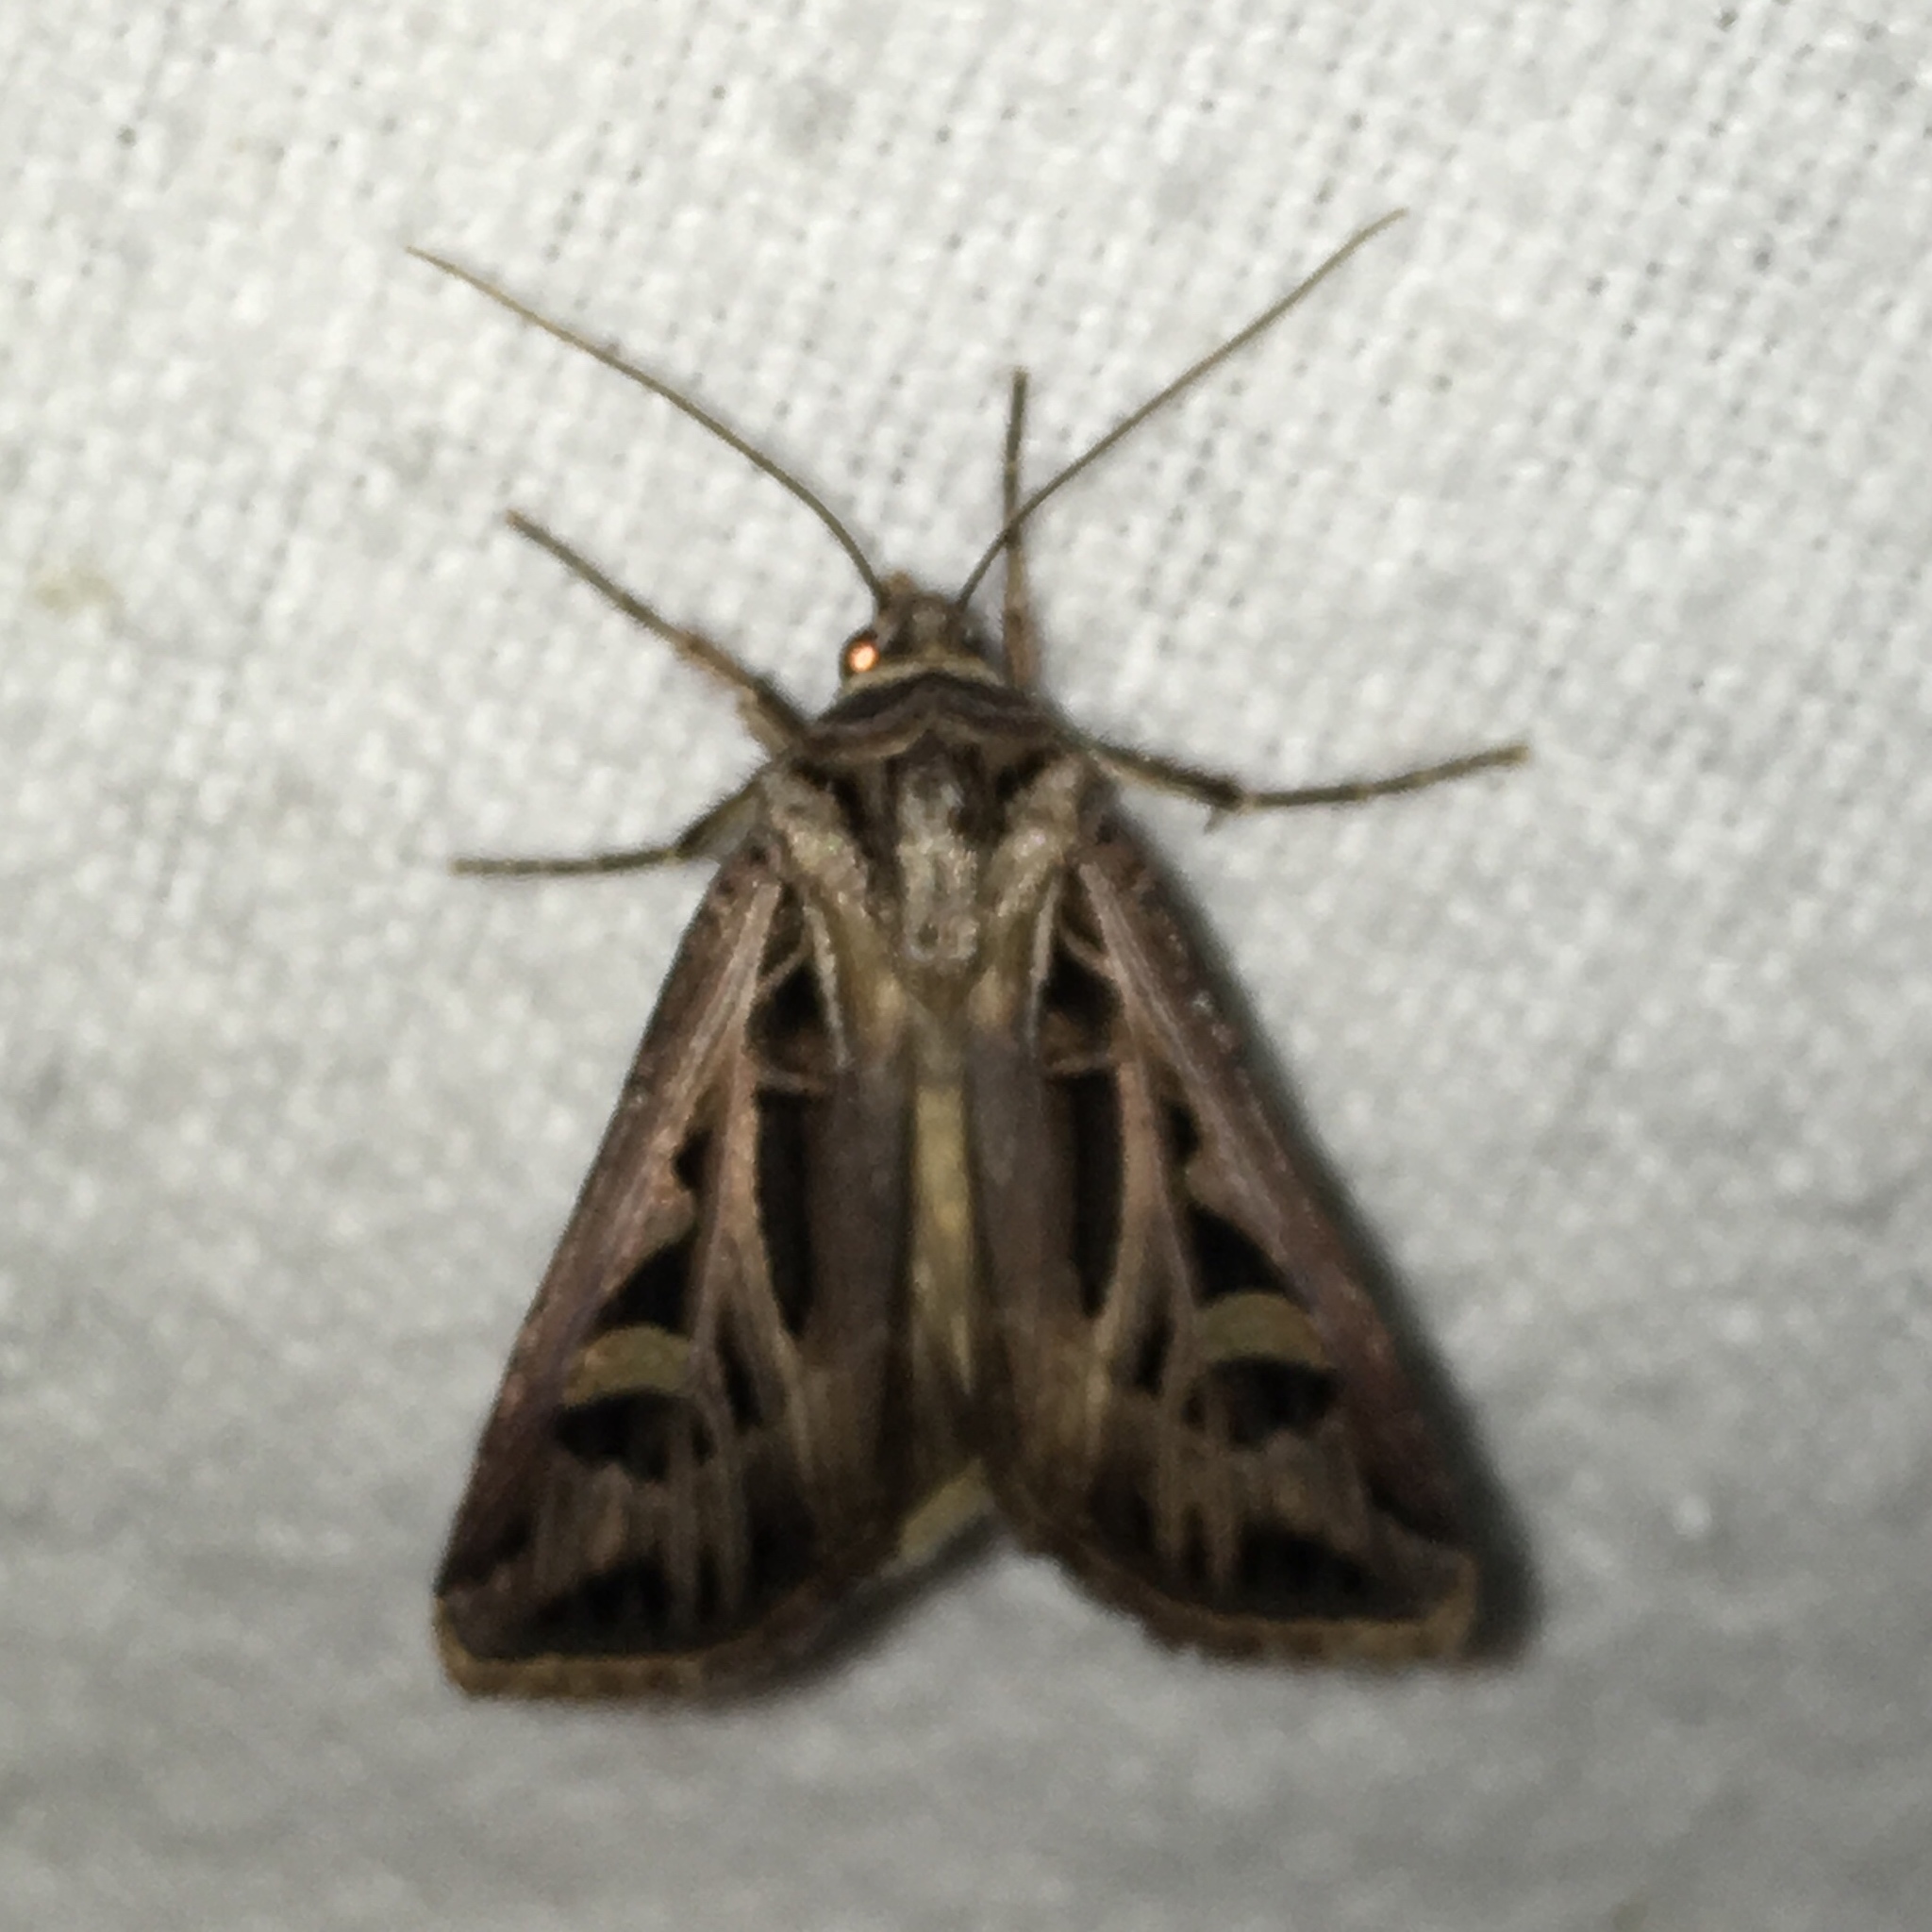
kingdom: Animalia
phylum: Arthropoda
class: Insecta
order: Lepidoptera
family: Noctuidae
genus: Feltia
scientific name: Feltia jaculifera
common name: Dingy cutworm moth
